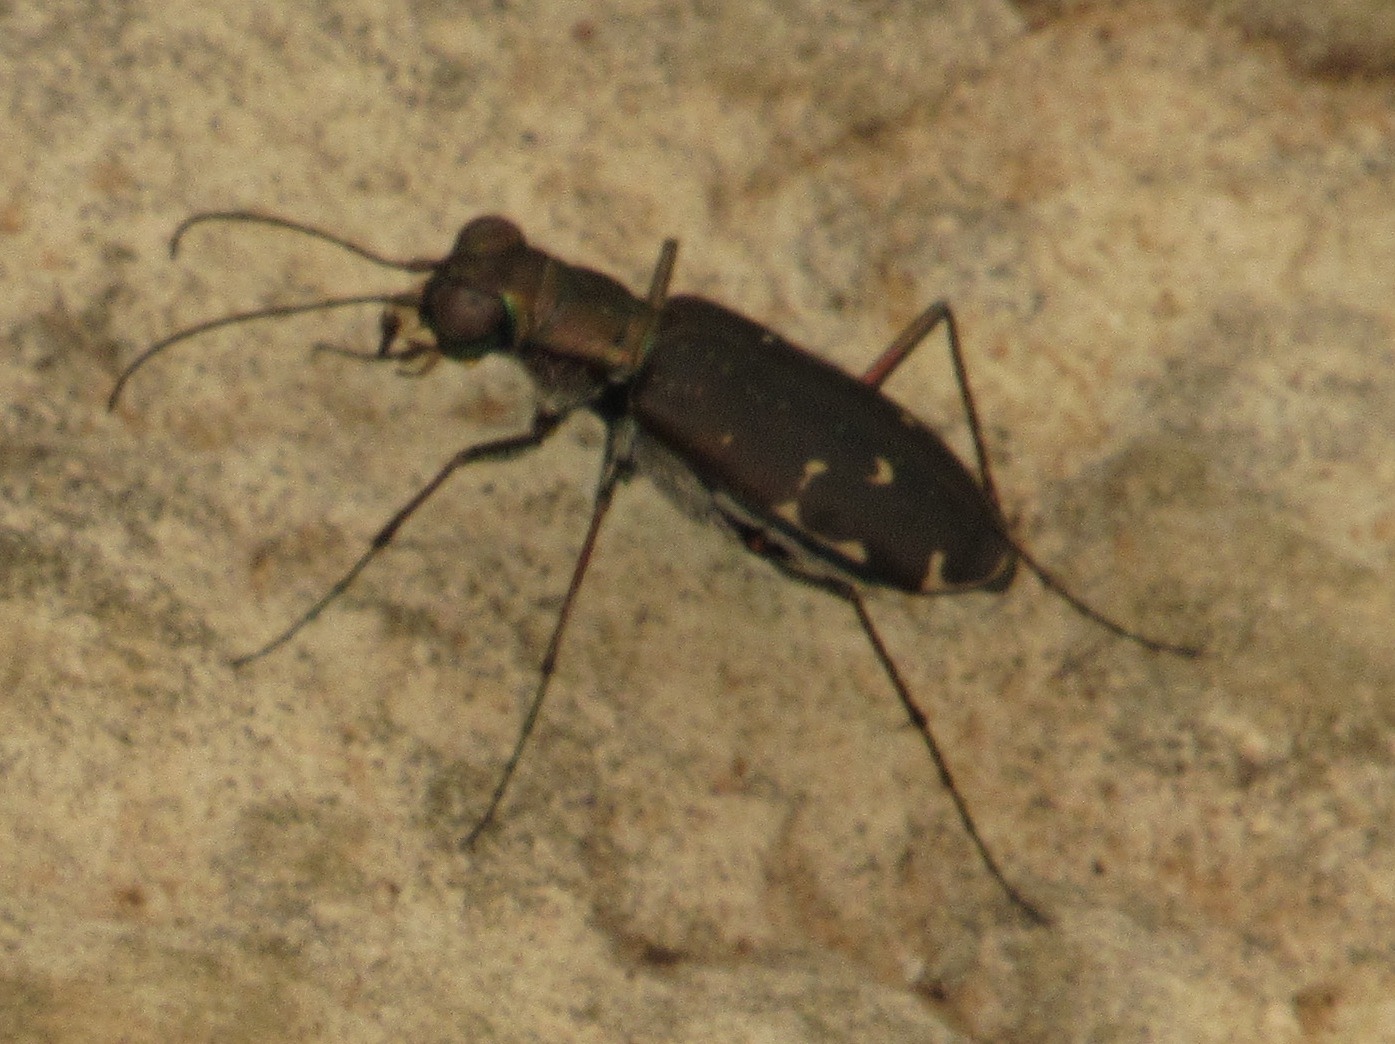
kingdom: Animalia
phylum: Arthropoda
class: Insecta
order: Coleoptera
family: Carabidae
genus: Cicindela
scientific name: Cicindela punctulata
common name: Punctured tiger beetle
